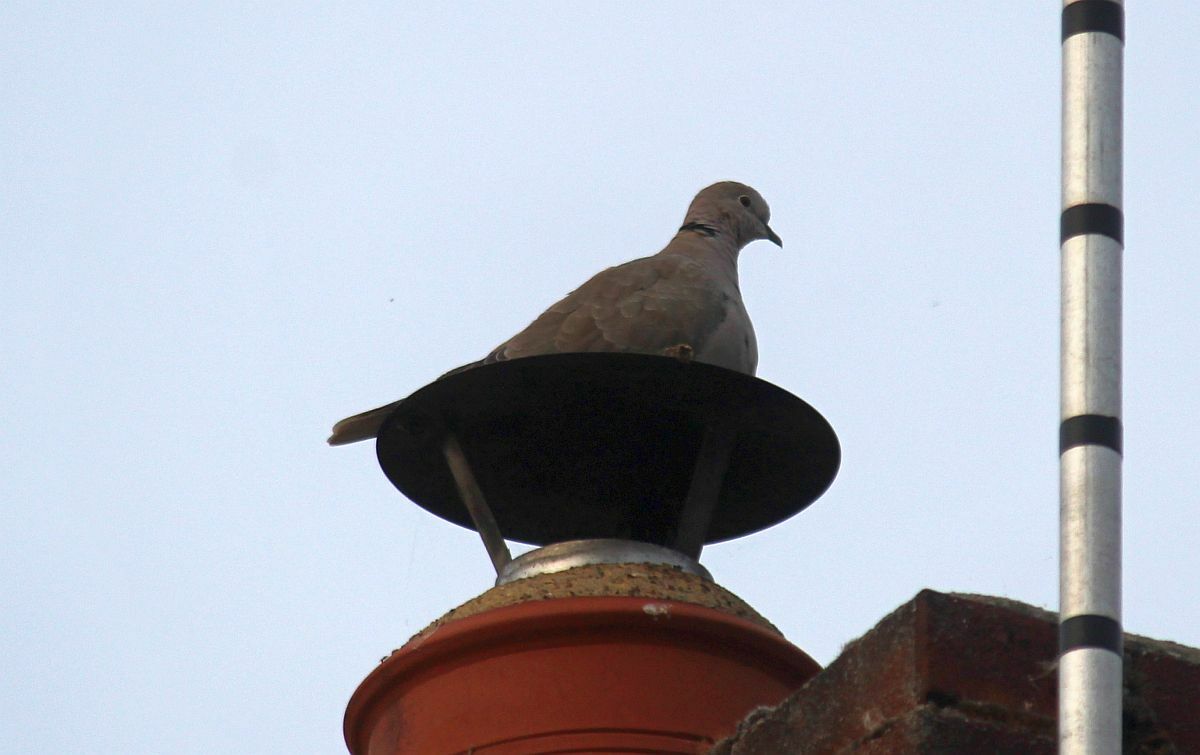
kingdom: Animalia
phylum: Chordata
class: Aves
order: Columbiformes
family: Columbidae
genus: Streptopelia
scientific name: Streptopelia decaocto
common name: Eurasian collared dove
